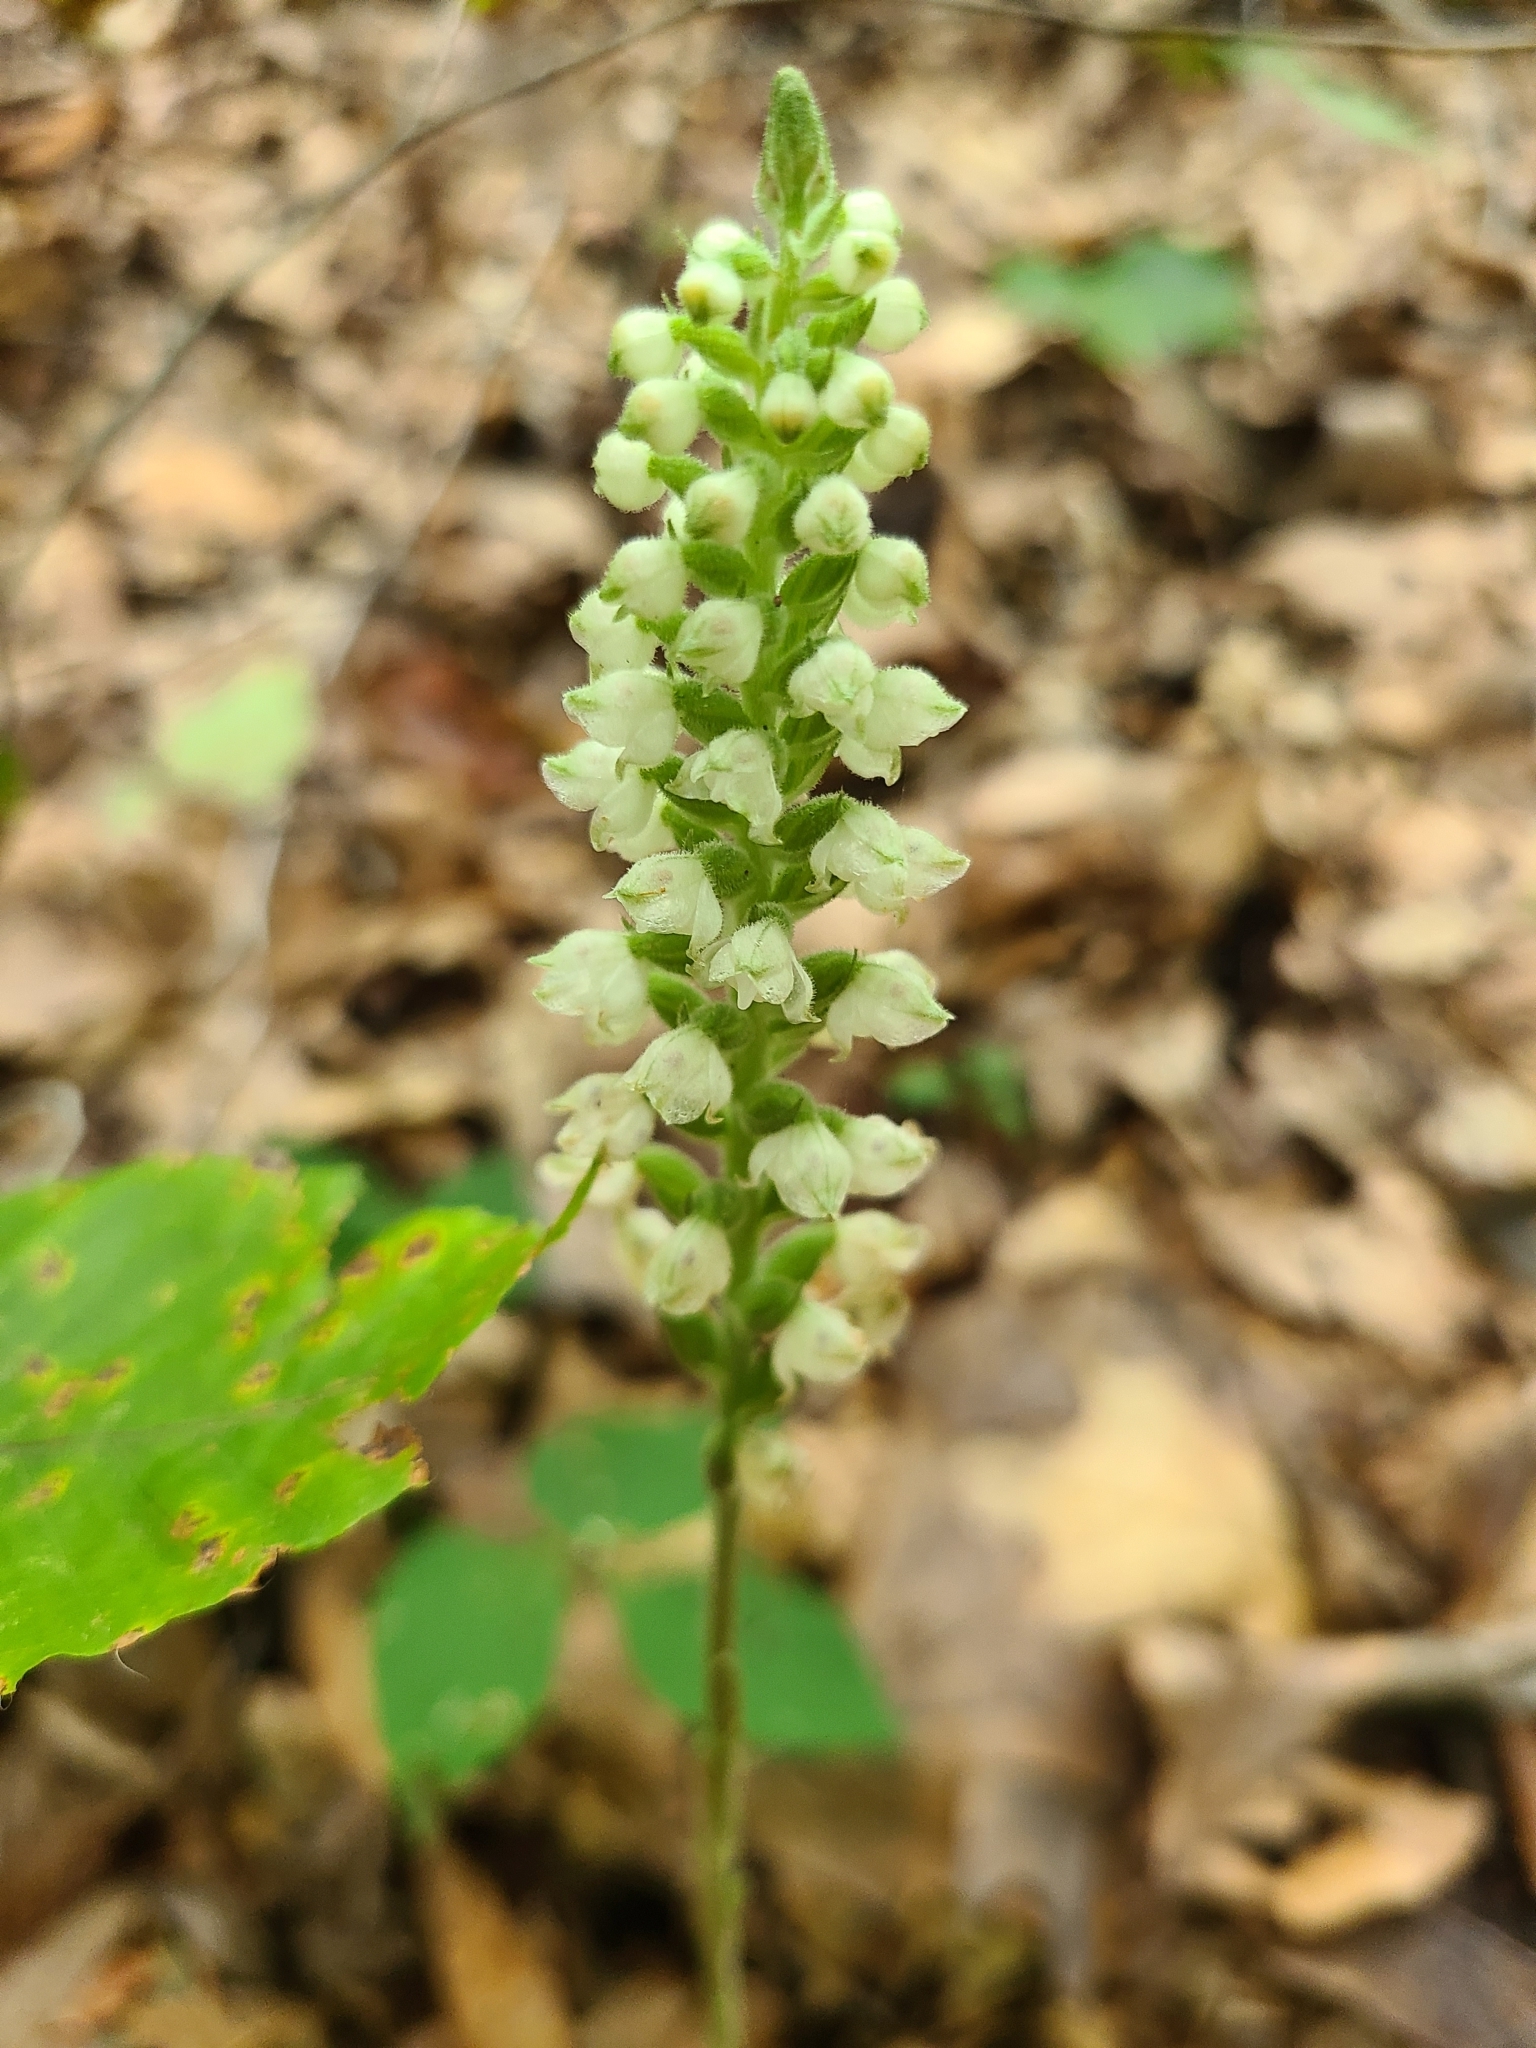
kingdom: Plantae
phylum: Tracheophyta
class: Liliopsida
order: Asparagales
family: Orchidaceae
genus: Goodyera
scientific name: Goodyera pubescens
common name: Downy rattlesnake-plantain
